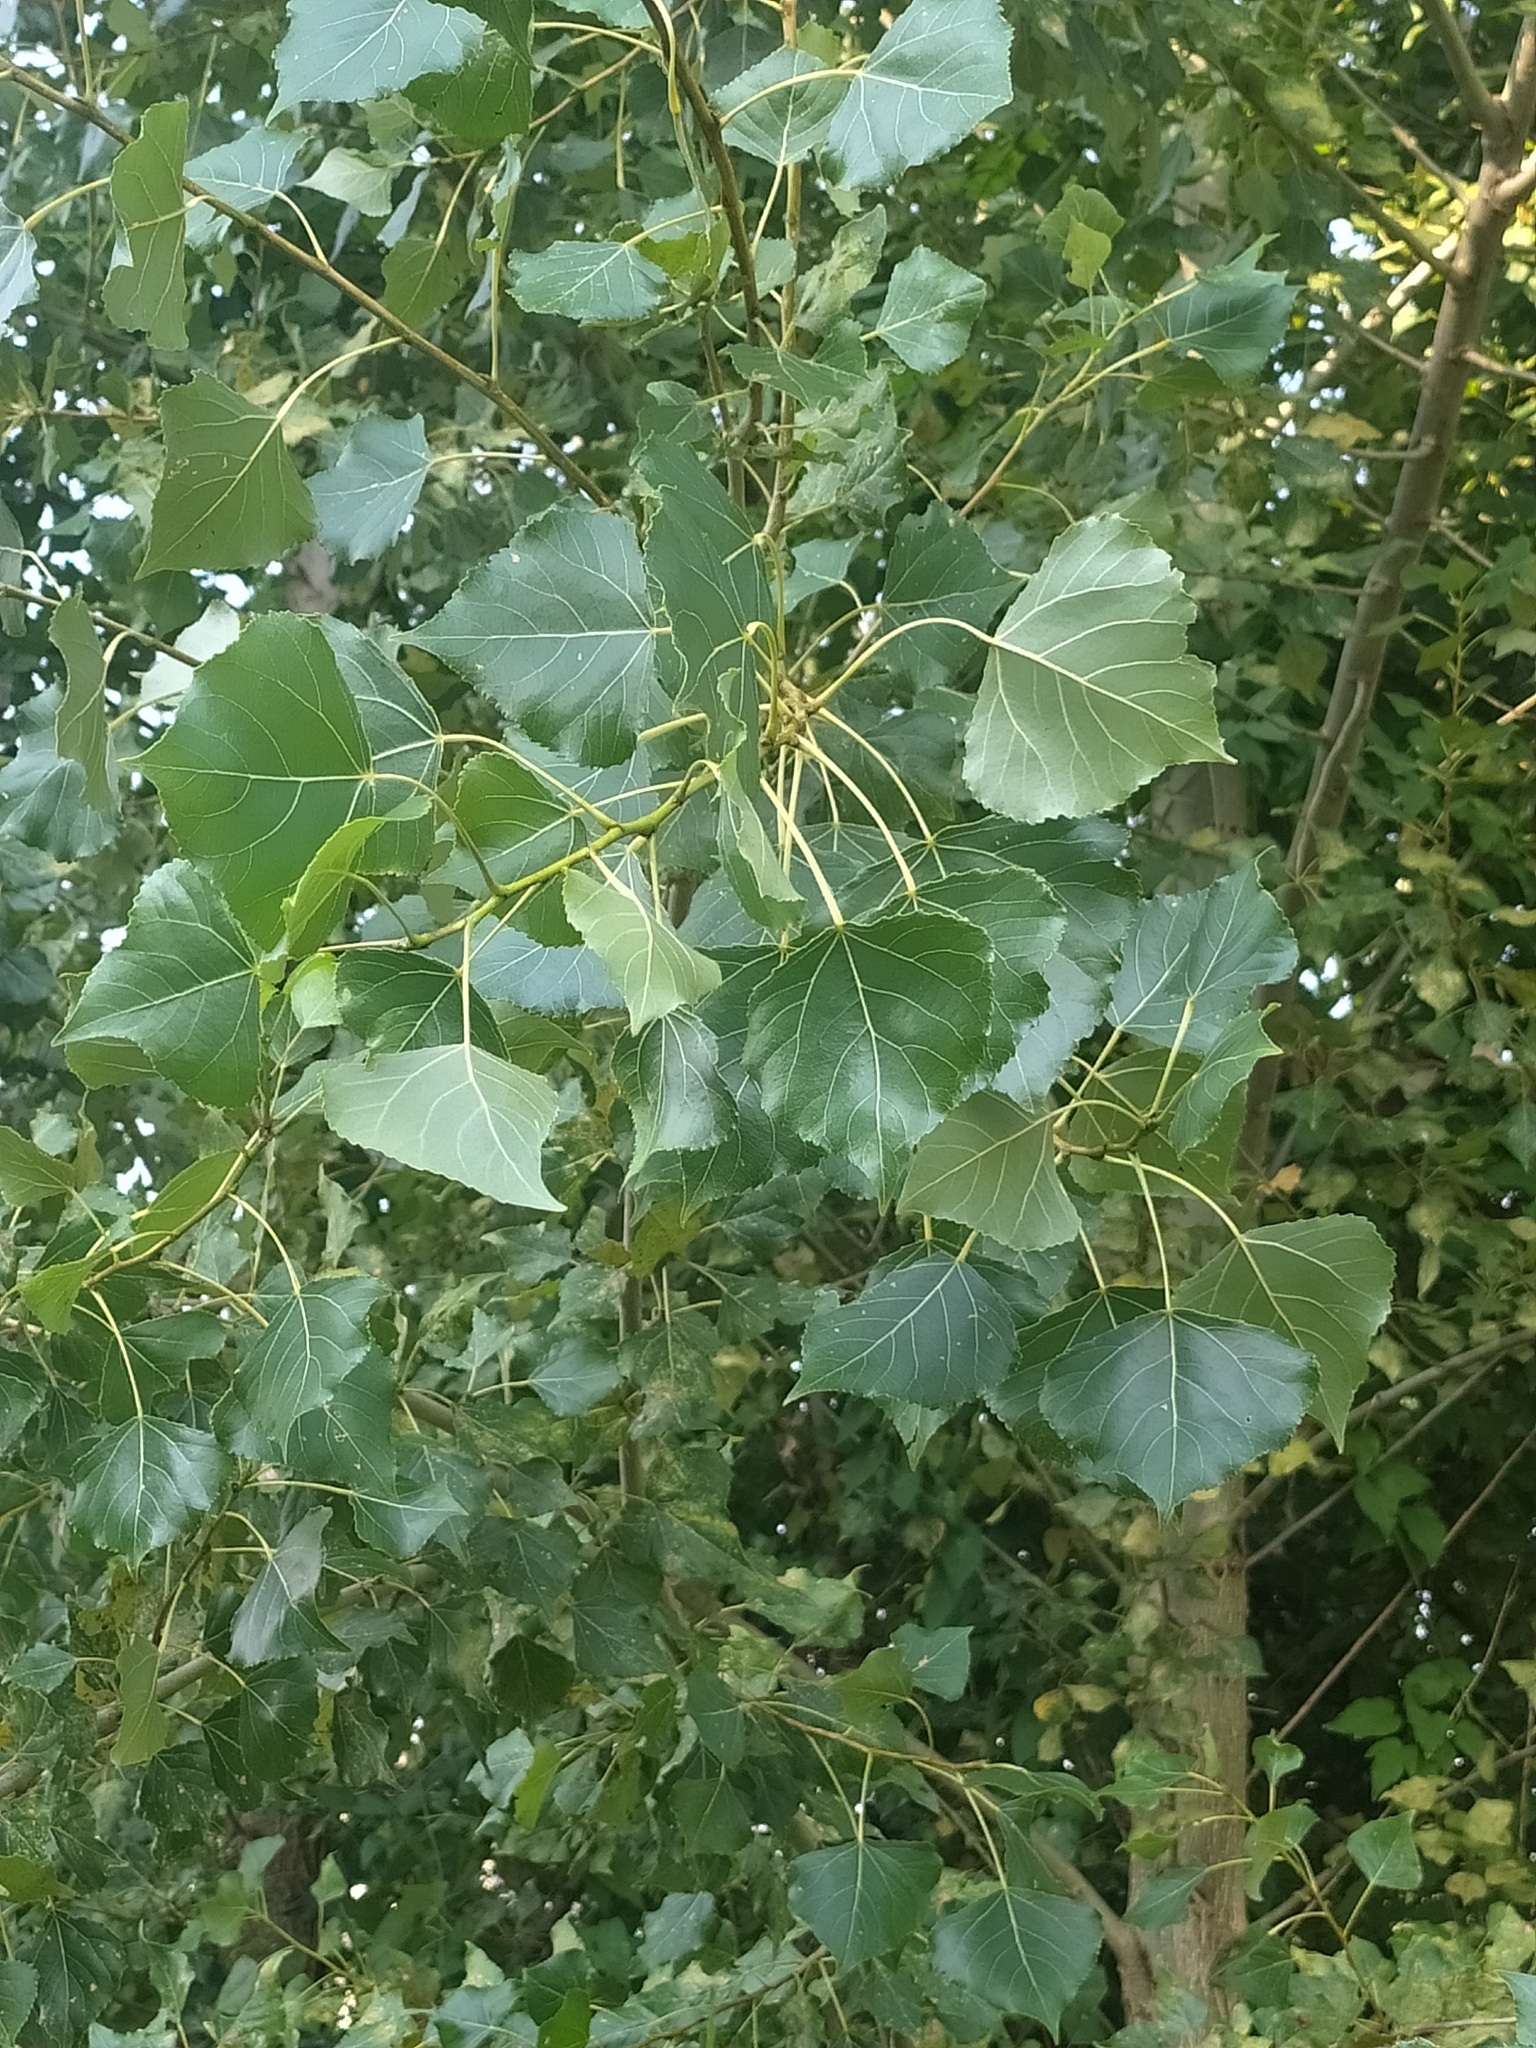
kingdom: Plantae
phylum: Tracheophyta
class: Magnoliopsida
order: Malpighiales
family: Salicaceae
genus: Populus
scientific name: Populus nigra
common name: Black poplar
